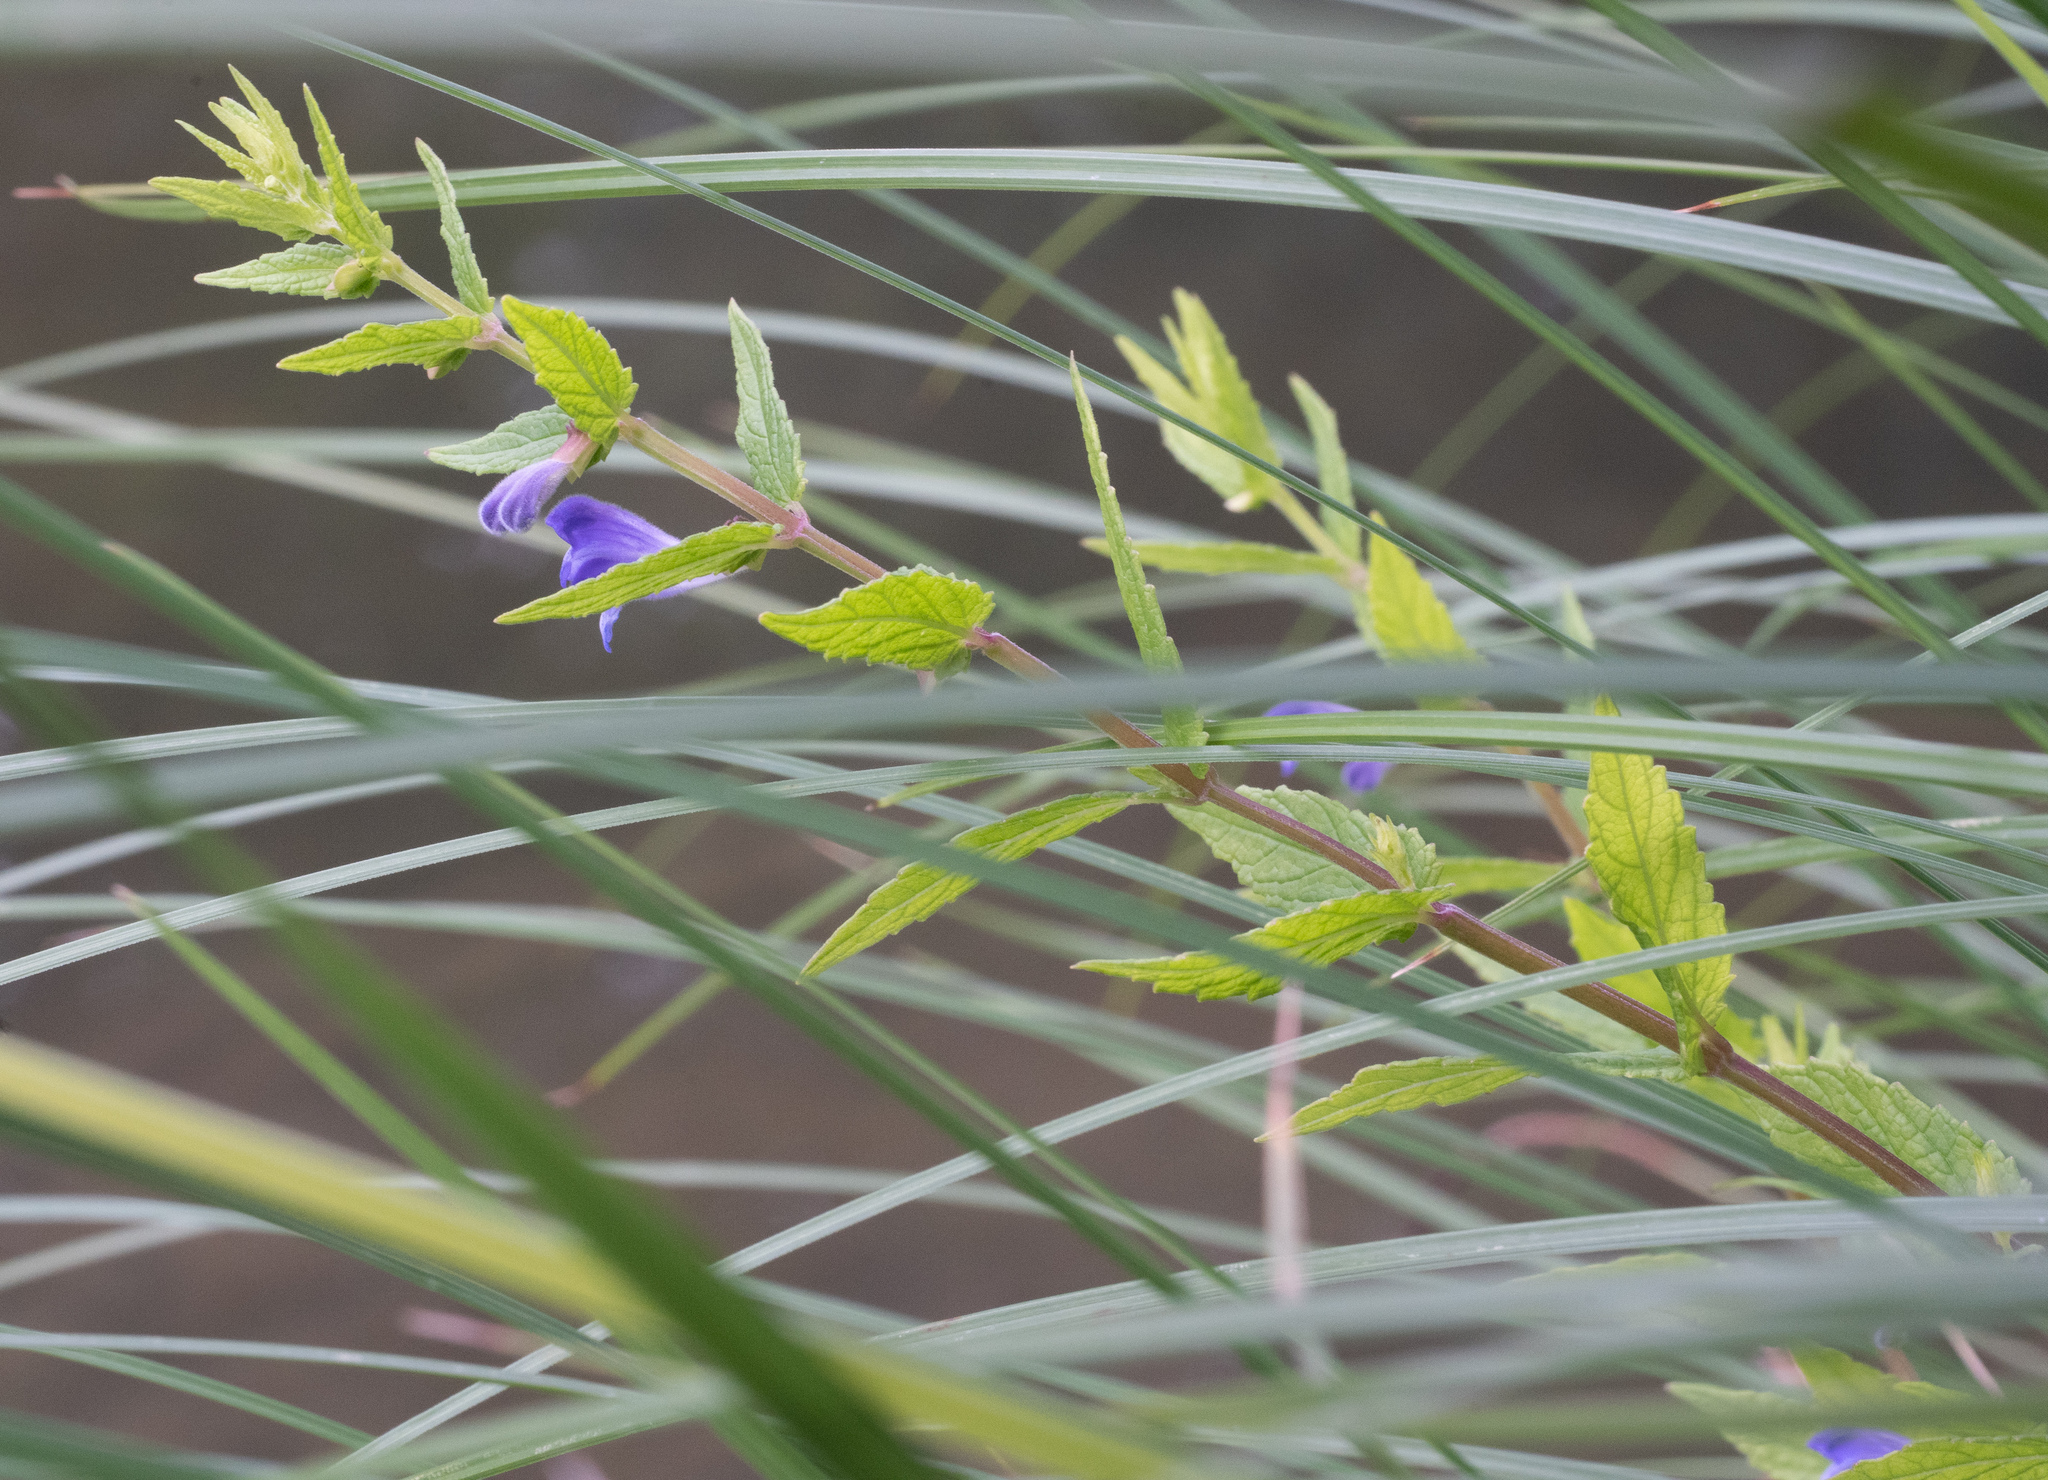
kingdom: Plantae
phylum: Tracheophyta
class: Magnoliopsida
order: Lamiales
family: Lamiaceae
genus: Scutellaria
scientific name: Scutellaria galericulata
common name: Skullcap
